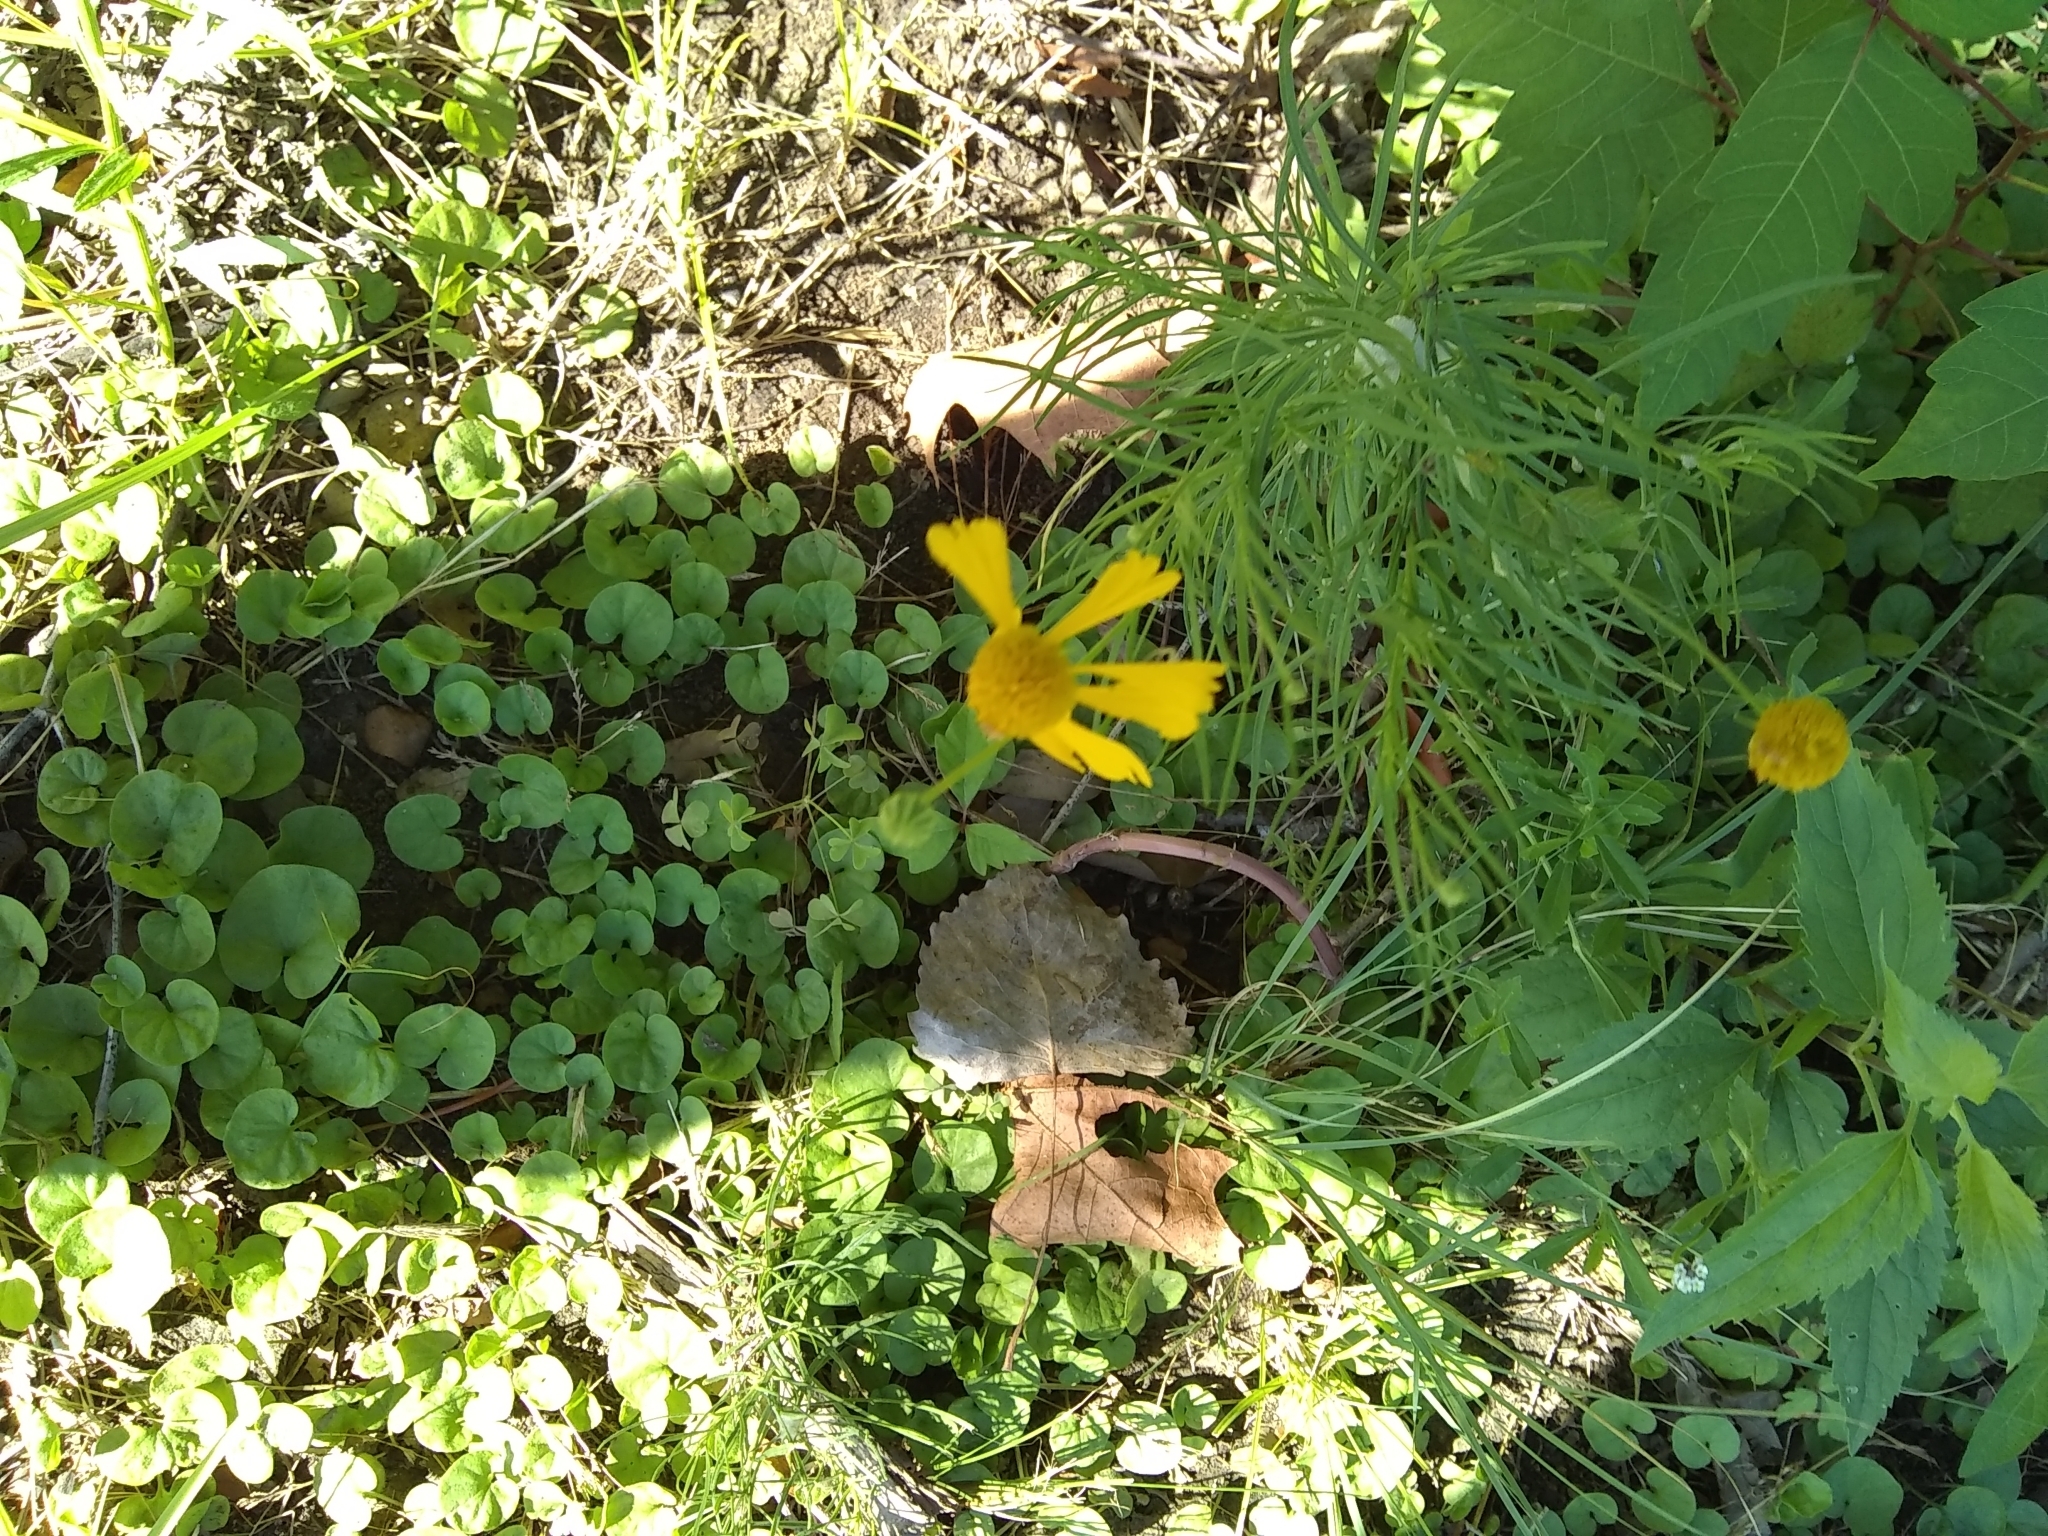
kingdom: Plantae
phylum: Tracheophyta
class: Magnoliopsida
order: Asterales
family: Asteraceae
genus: Helenium
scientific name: Helenium amarum
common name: Bitter sneezeweed
